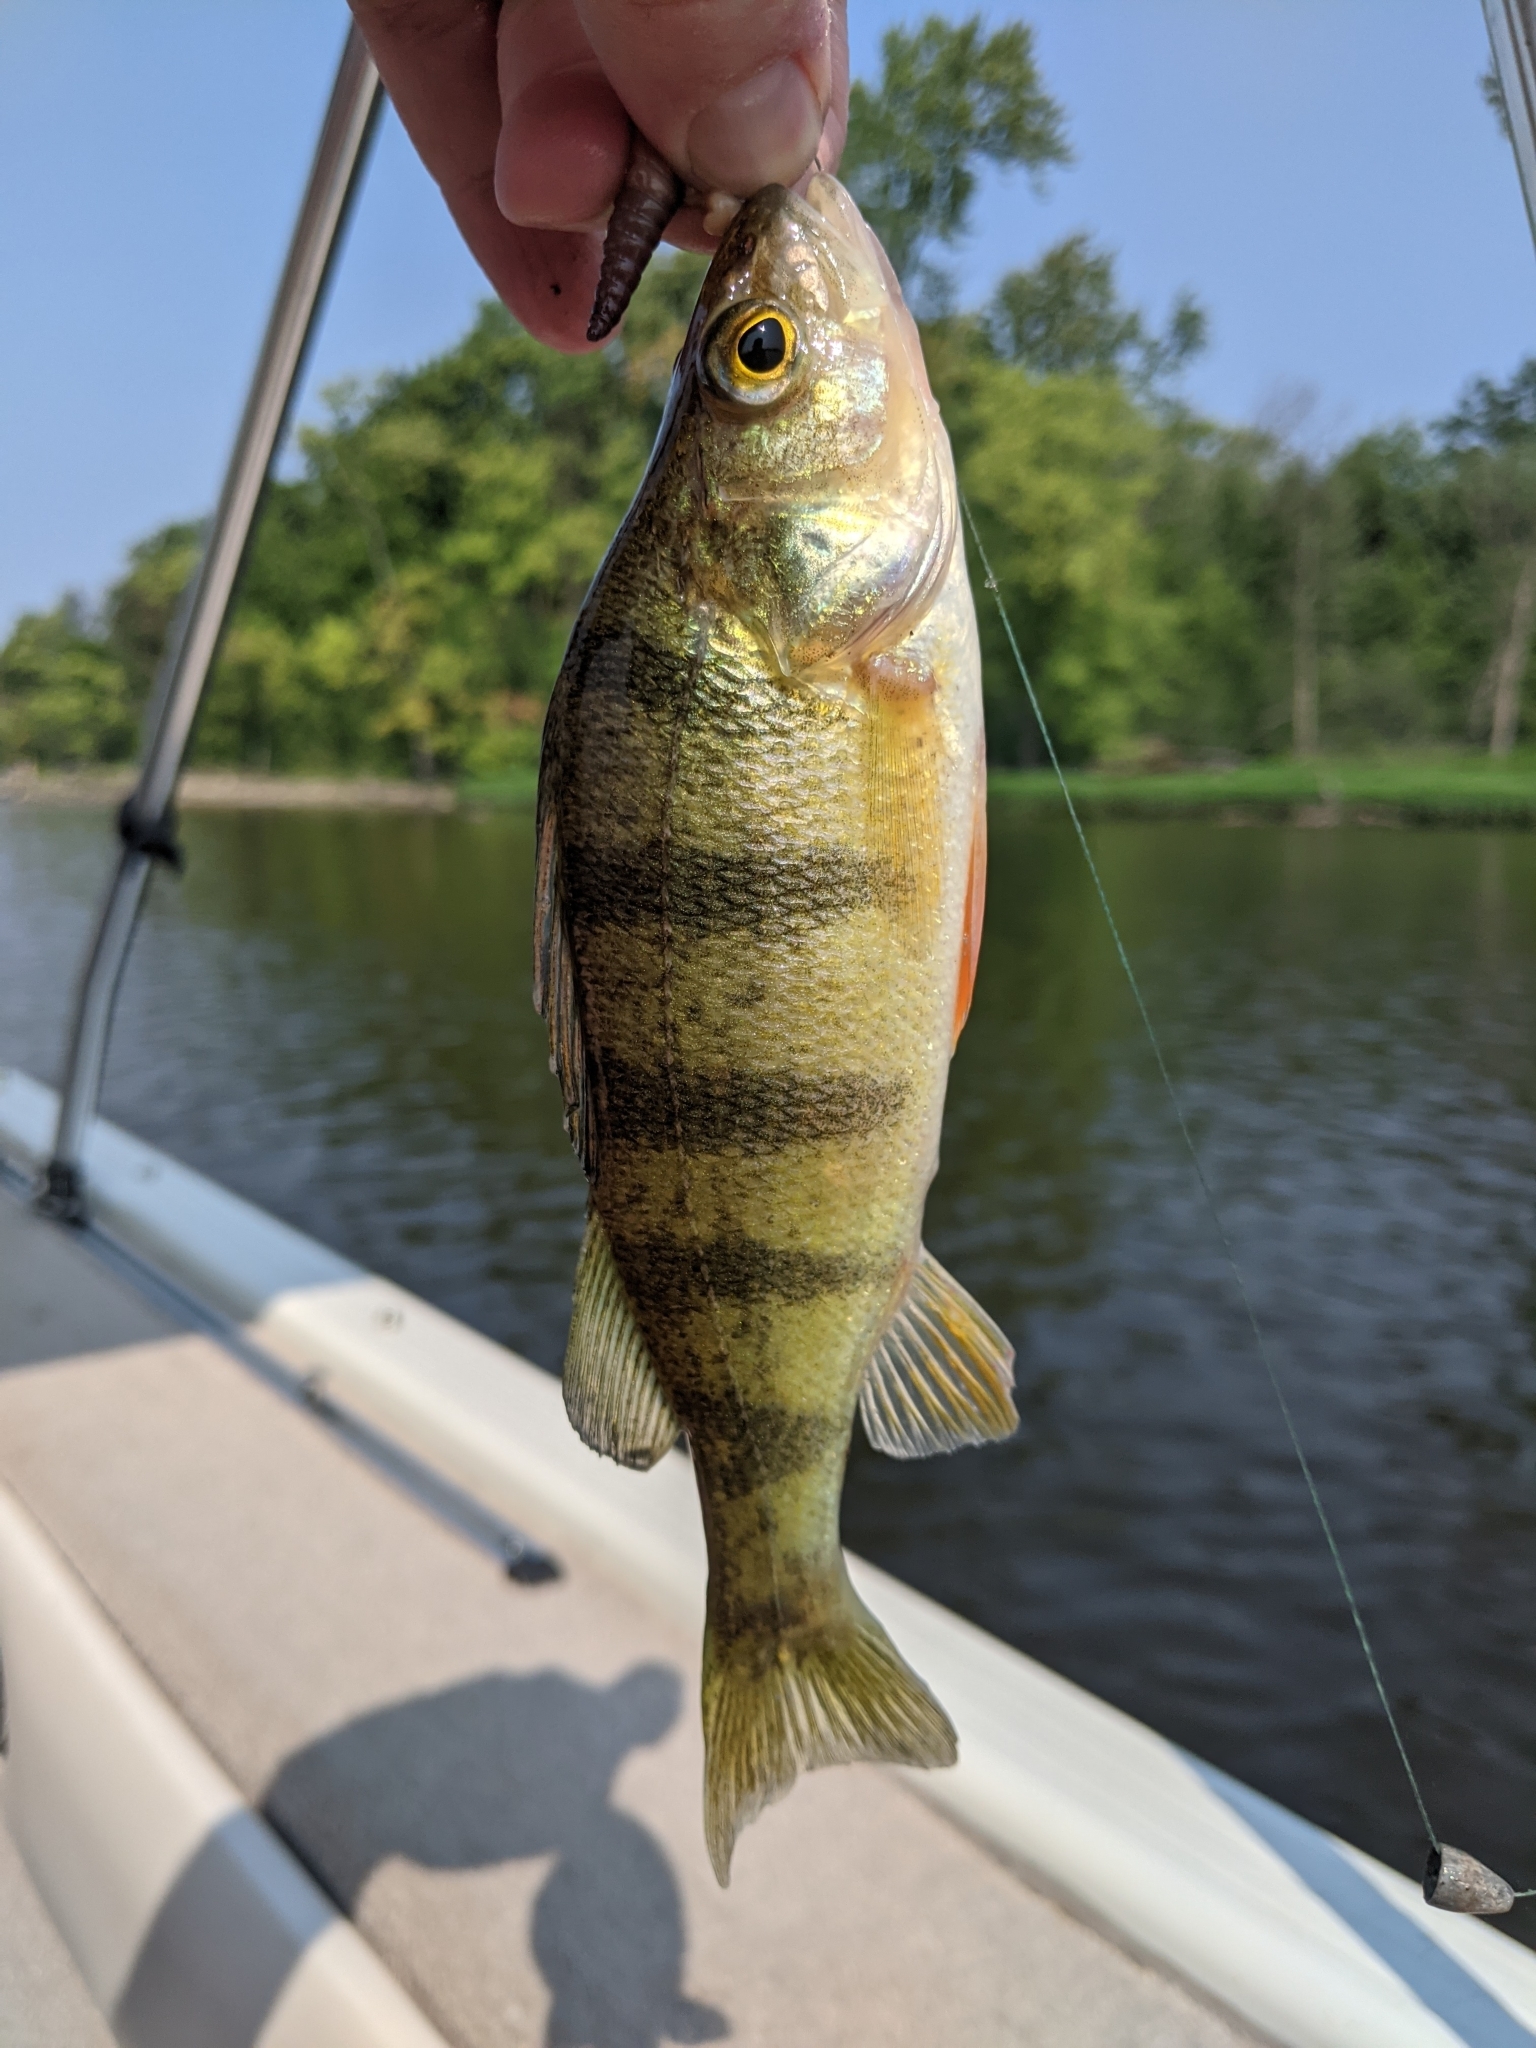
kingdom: Animalia
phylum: Chordata
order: Perciformes
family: Percidae
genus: Perca
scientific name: Perca flavescens
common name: Yellow perch
